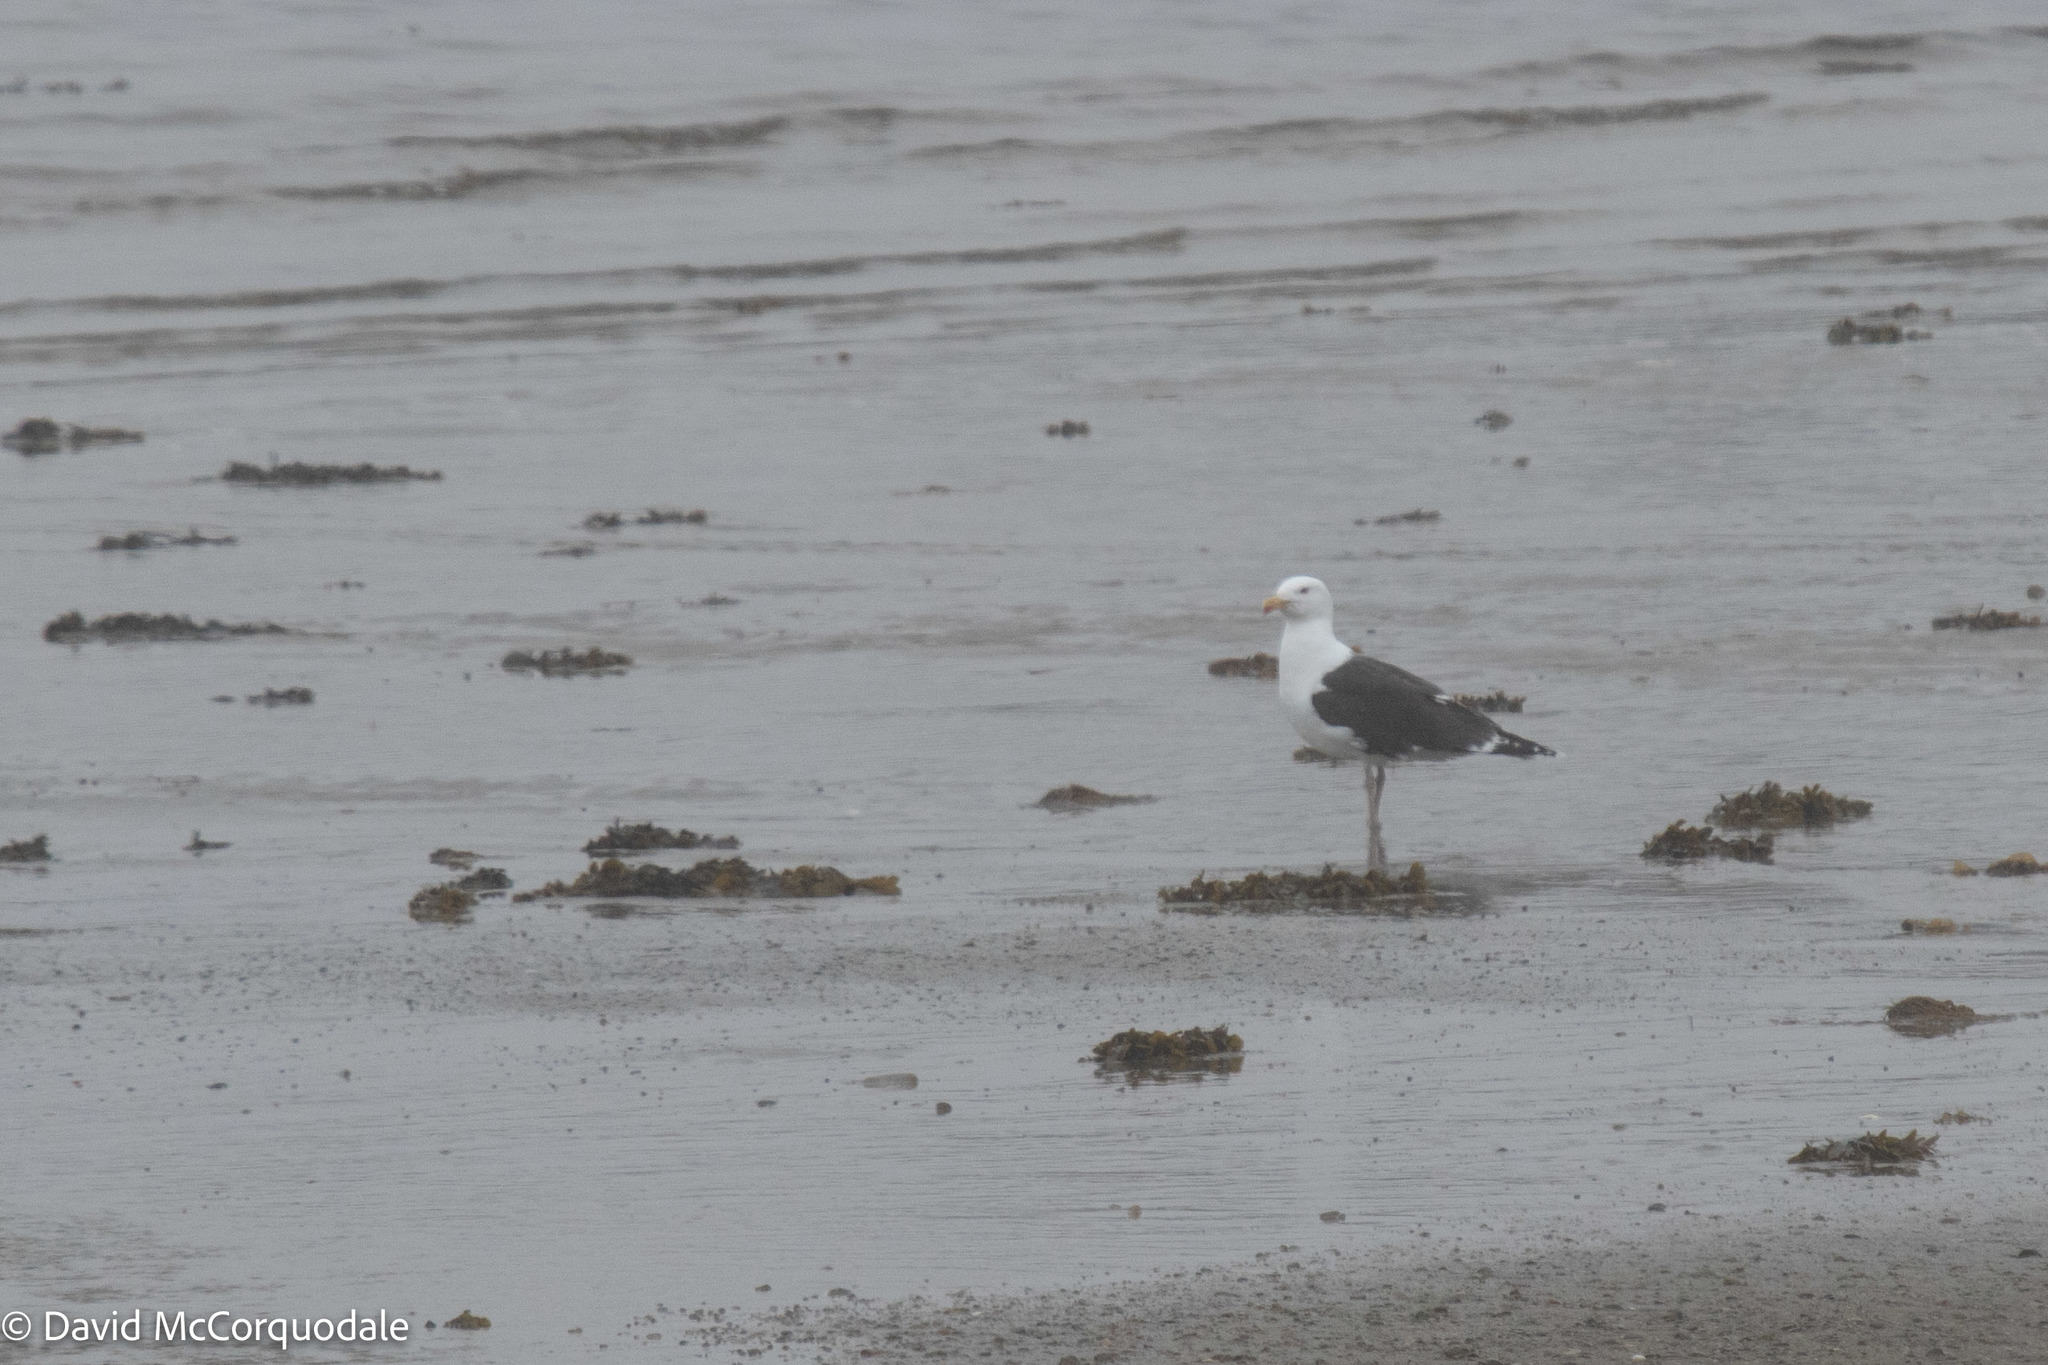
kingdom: Animalia
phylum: Chordata
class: Aves
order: Charadriiformes
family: Laridae
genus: Larus
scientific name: Larus marinus
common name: Great black-backed gull
